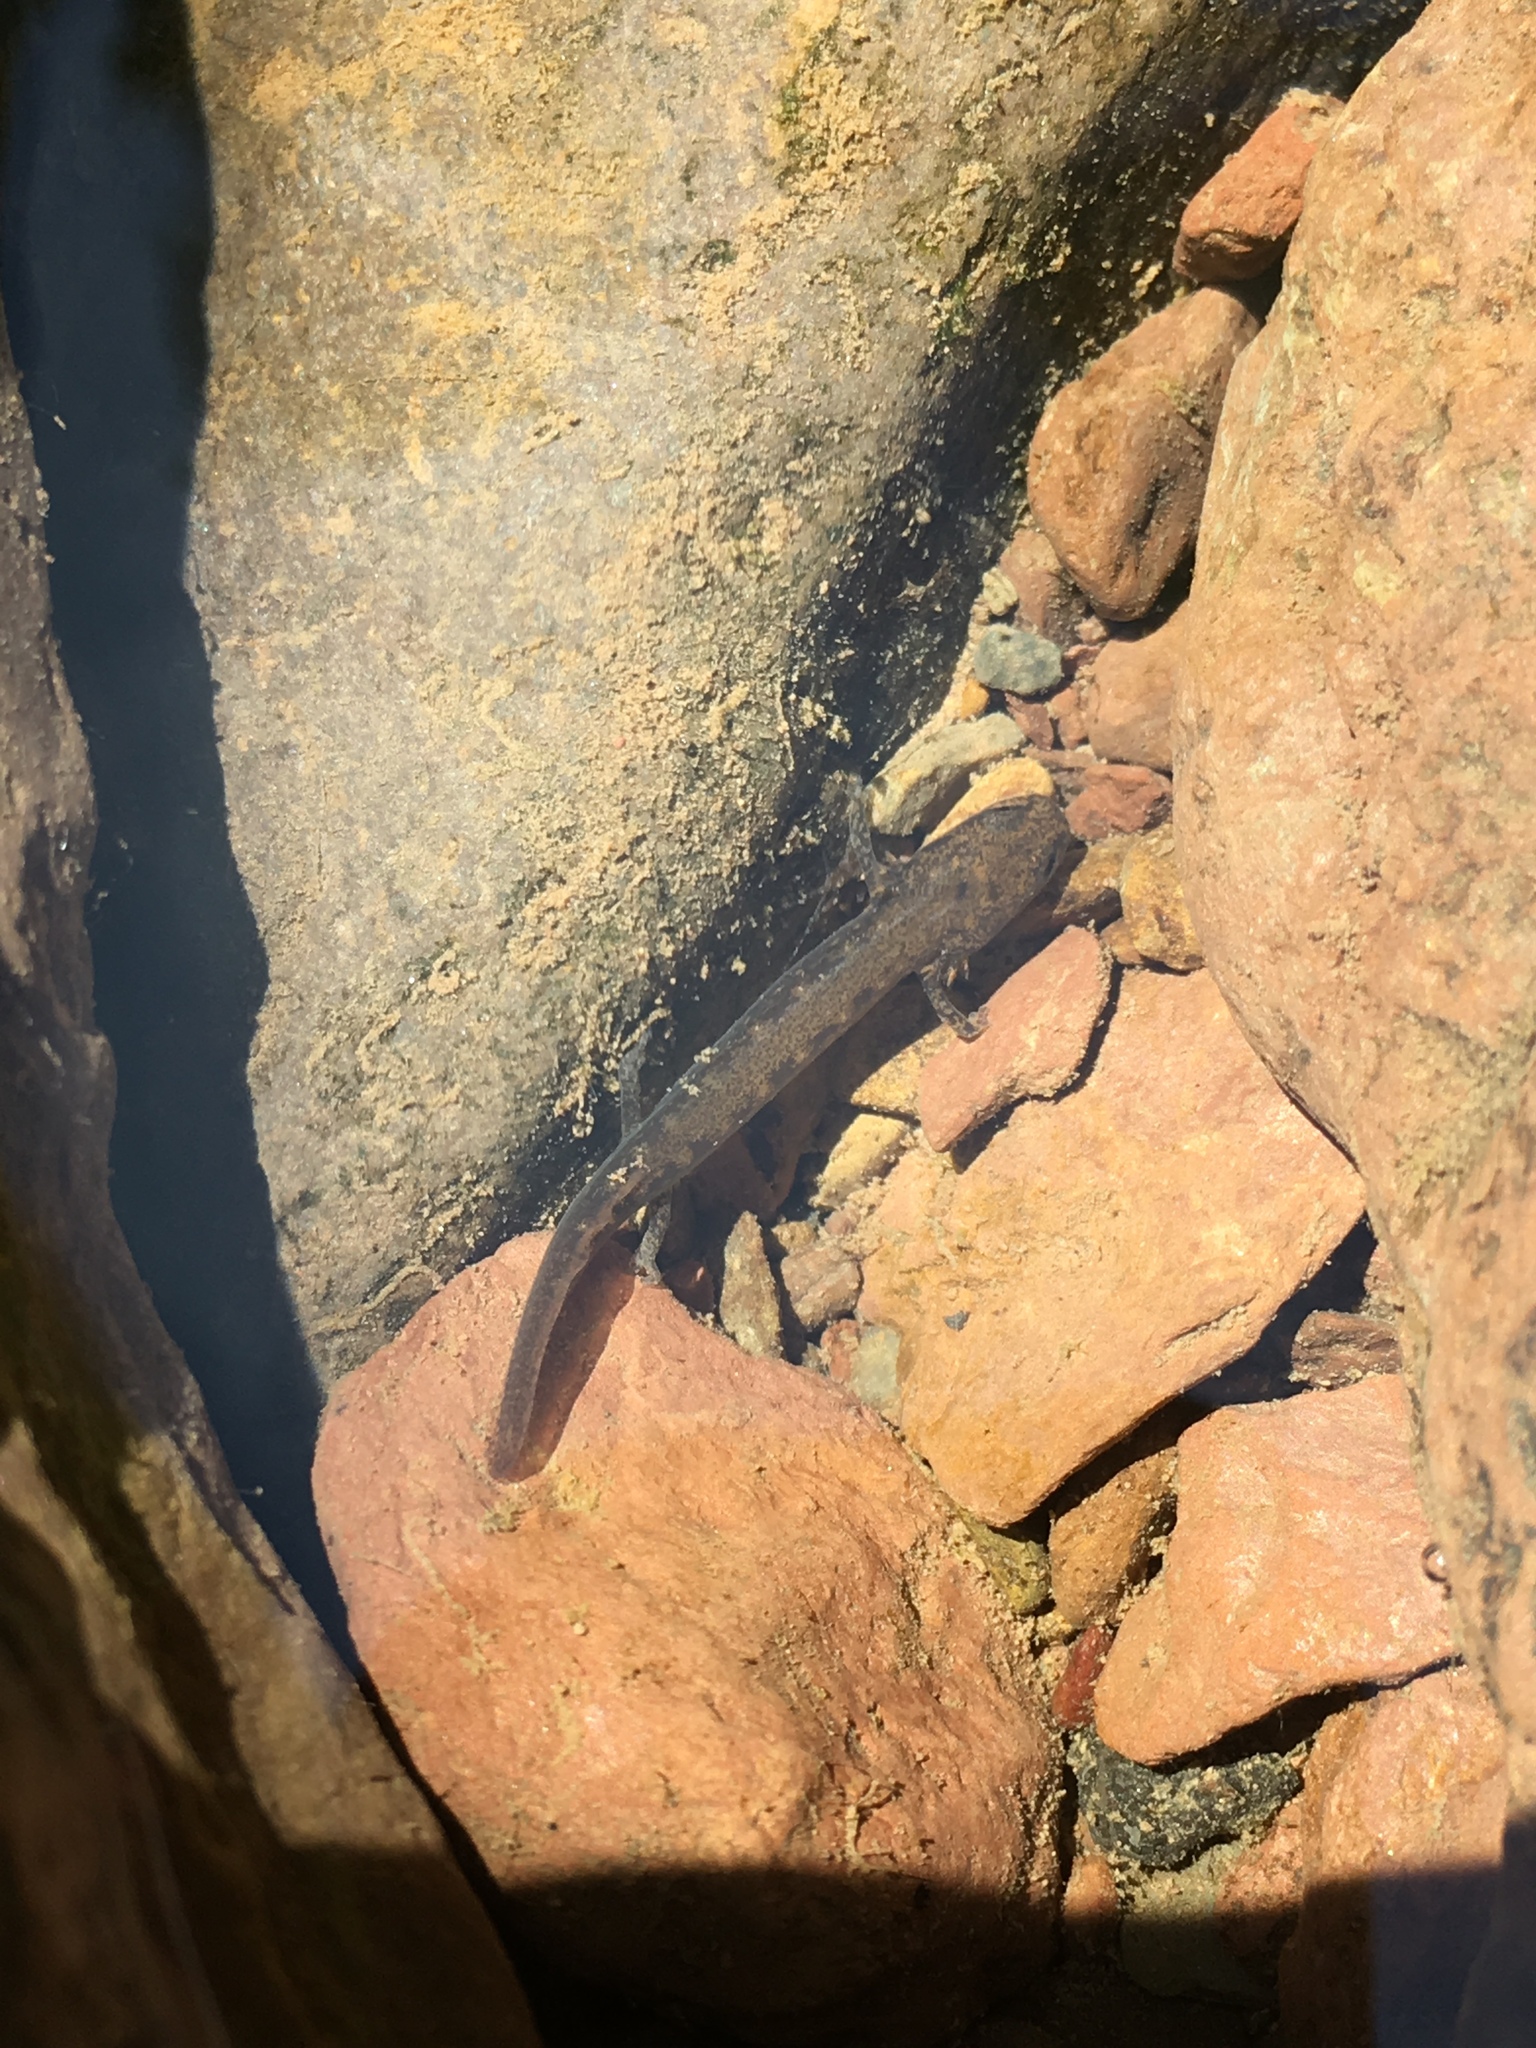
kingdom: Animalia
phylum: Chordata
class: Amphibia
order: Caudata
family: Plethodontidae
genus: Eurycea
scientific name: Eurycea bislineata
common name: Northern two-lined salamander
